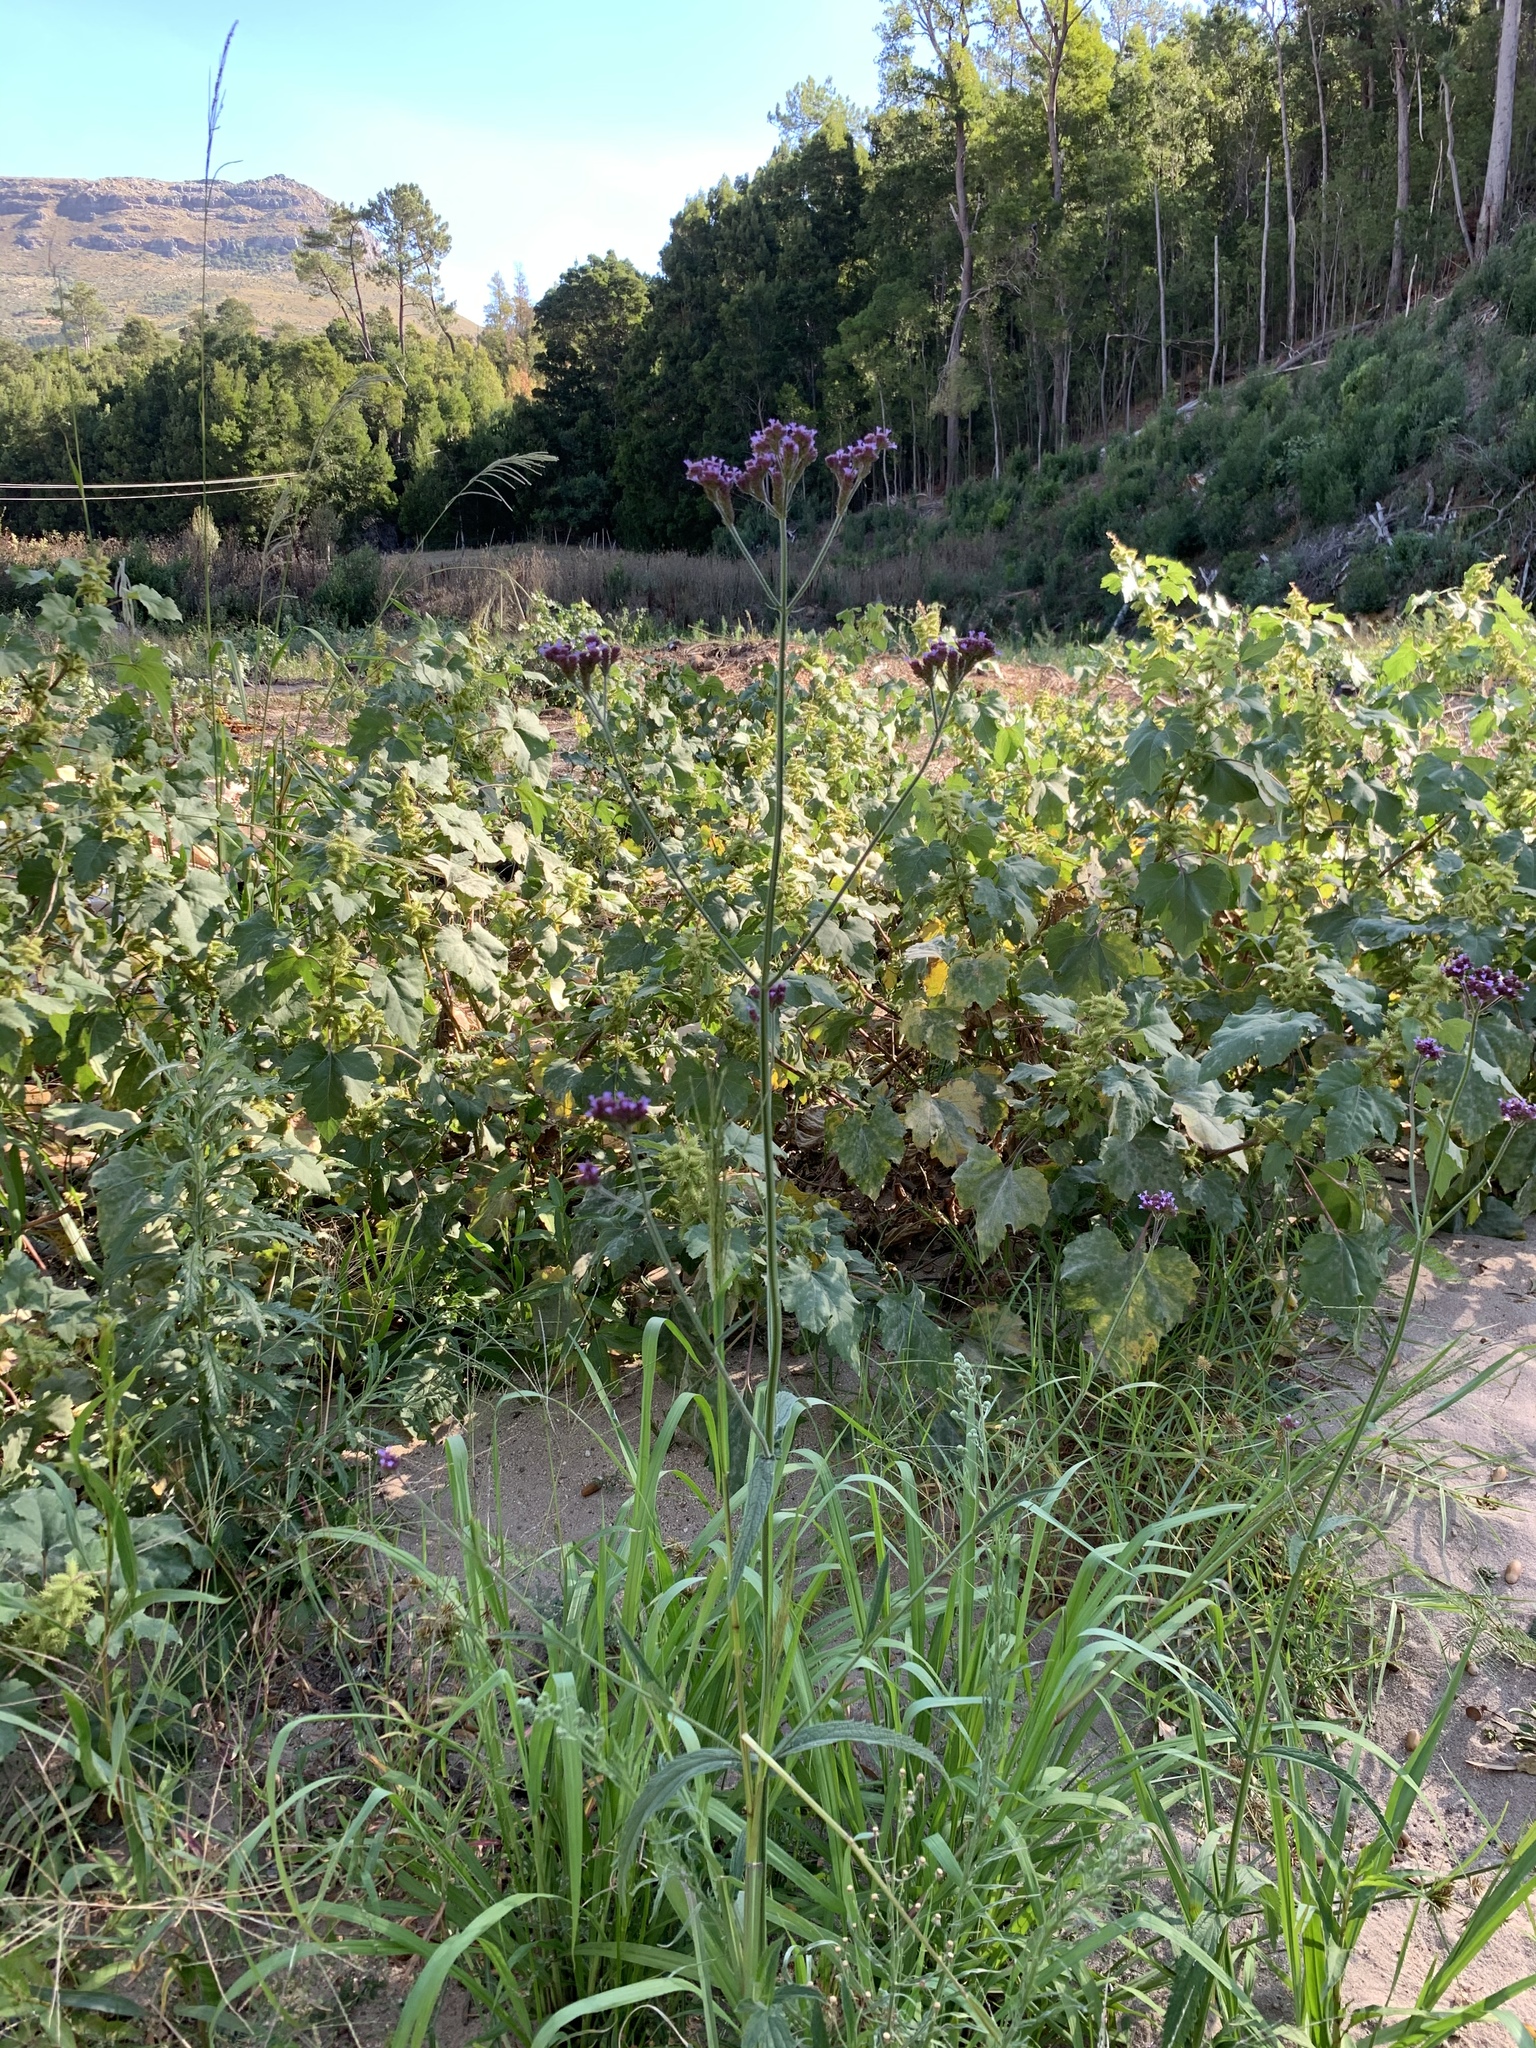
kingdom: Plantae
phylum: Tracheophyta
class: Magnoliopsida
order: Lamiales
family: Verbenaceae
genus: Verbena
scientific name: Verbena bonariensis
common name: Purpletop vervain
